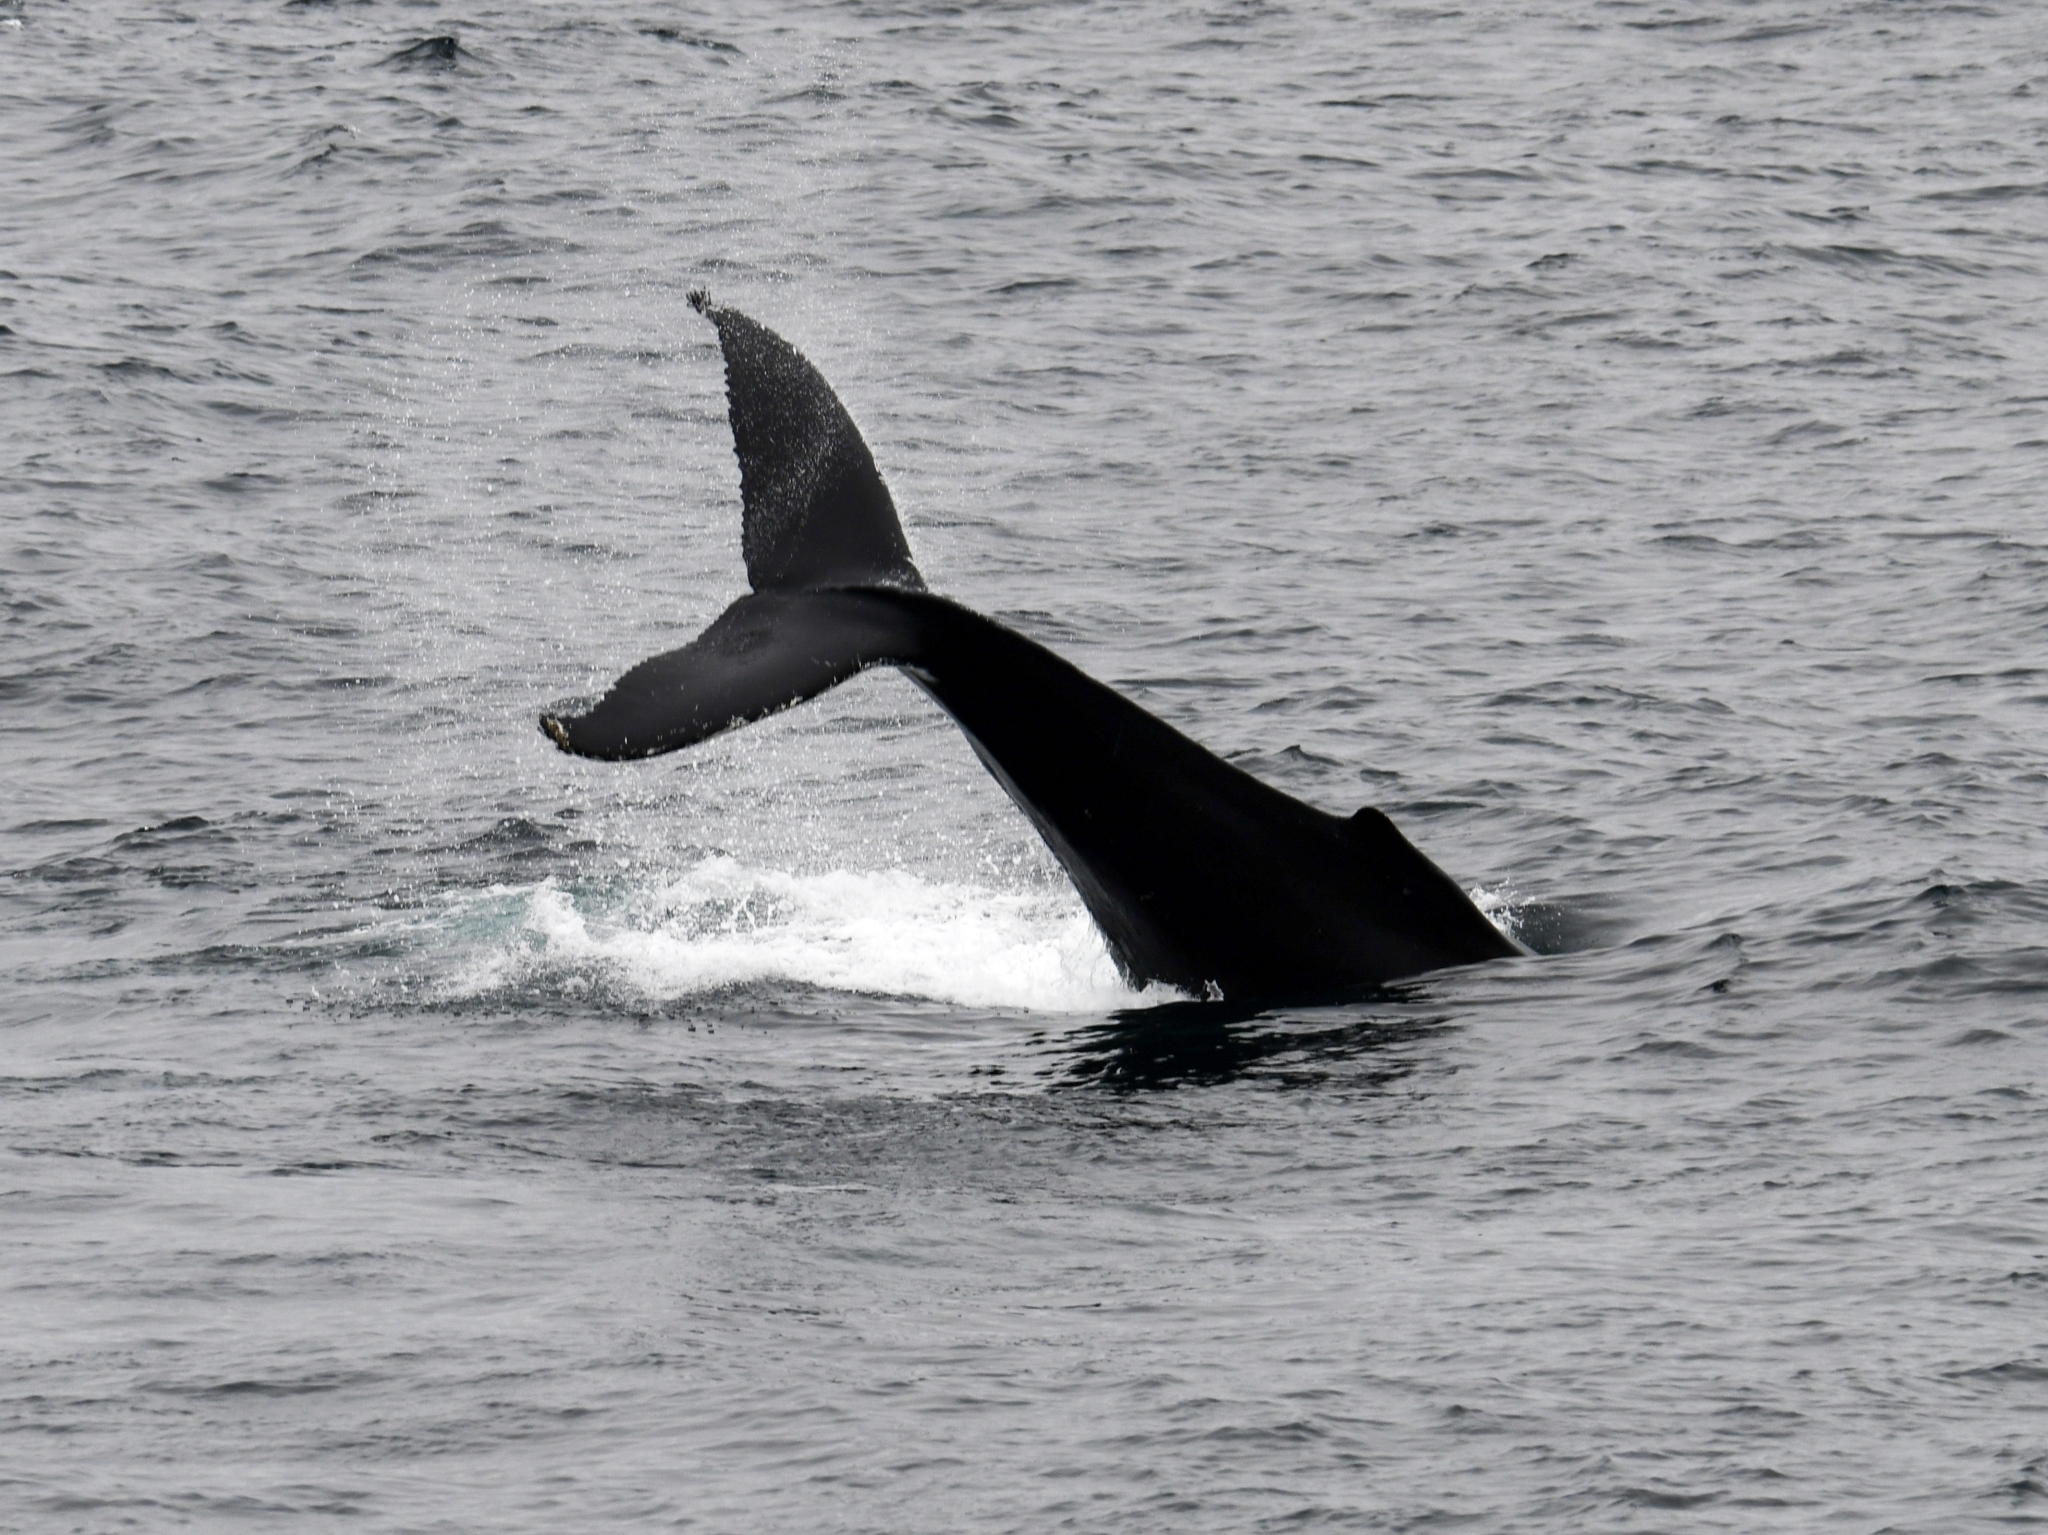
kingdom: Animalia
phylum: Chordata
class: Mammalia
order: Cetacea
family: Balaenopteridae
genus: Megaptera
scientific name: Megaptera novaeangliae
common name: Humpback whale
